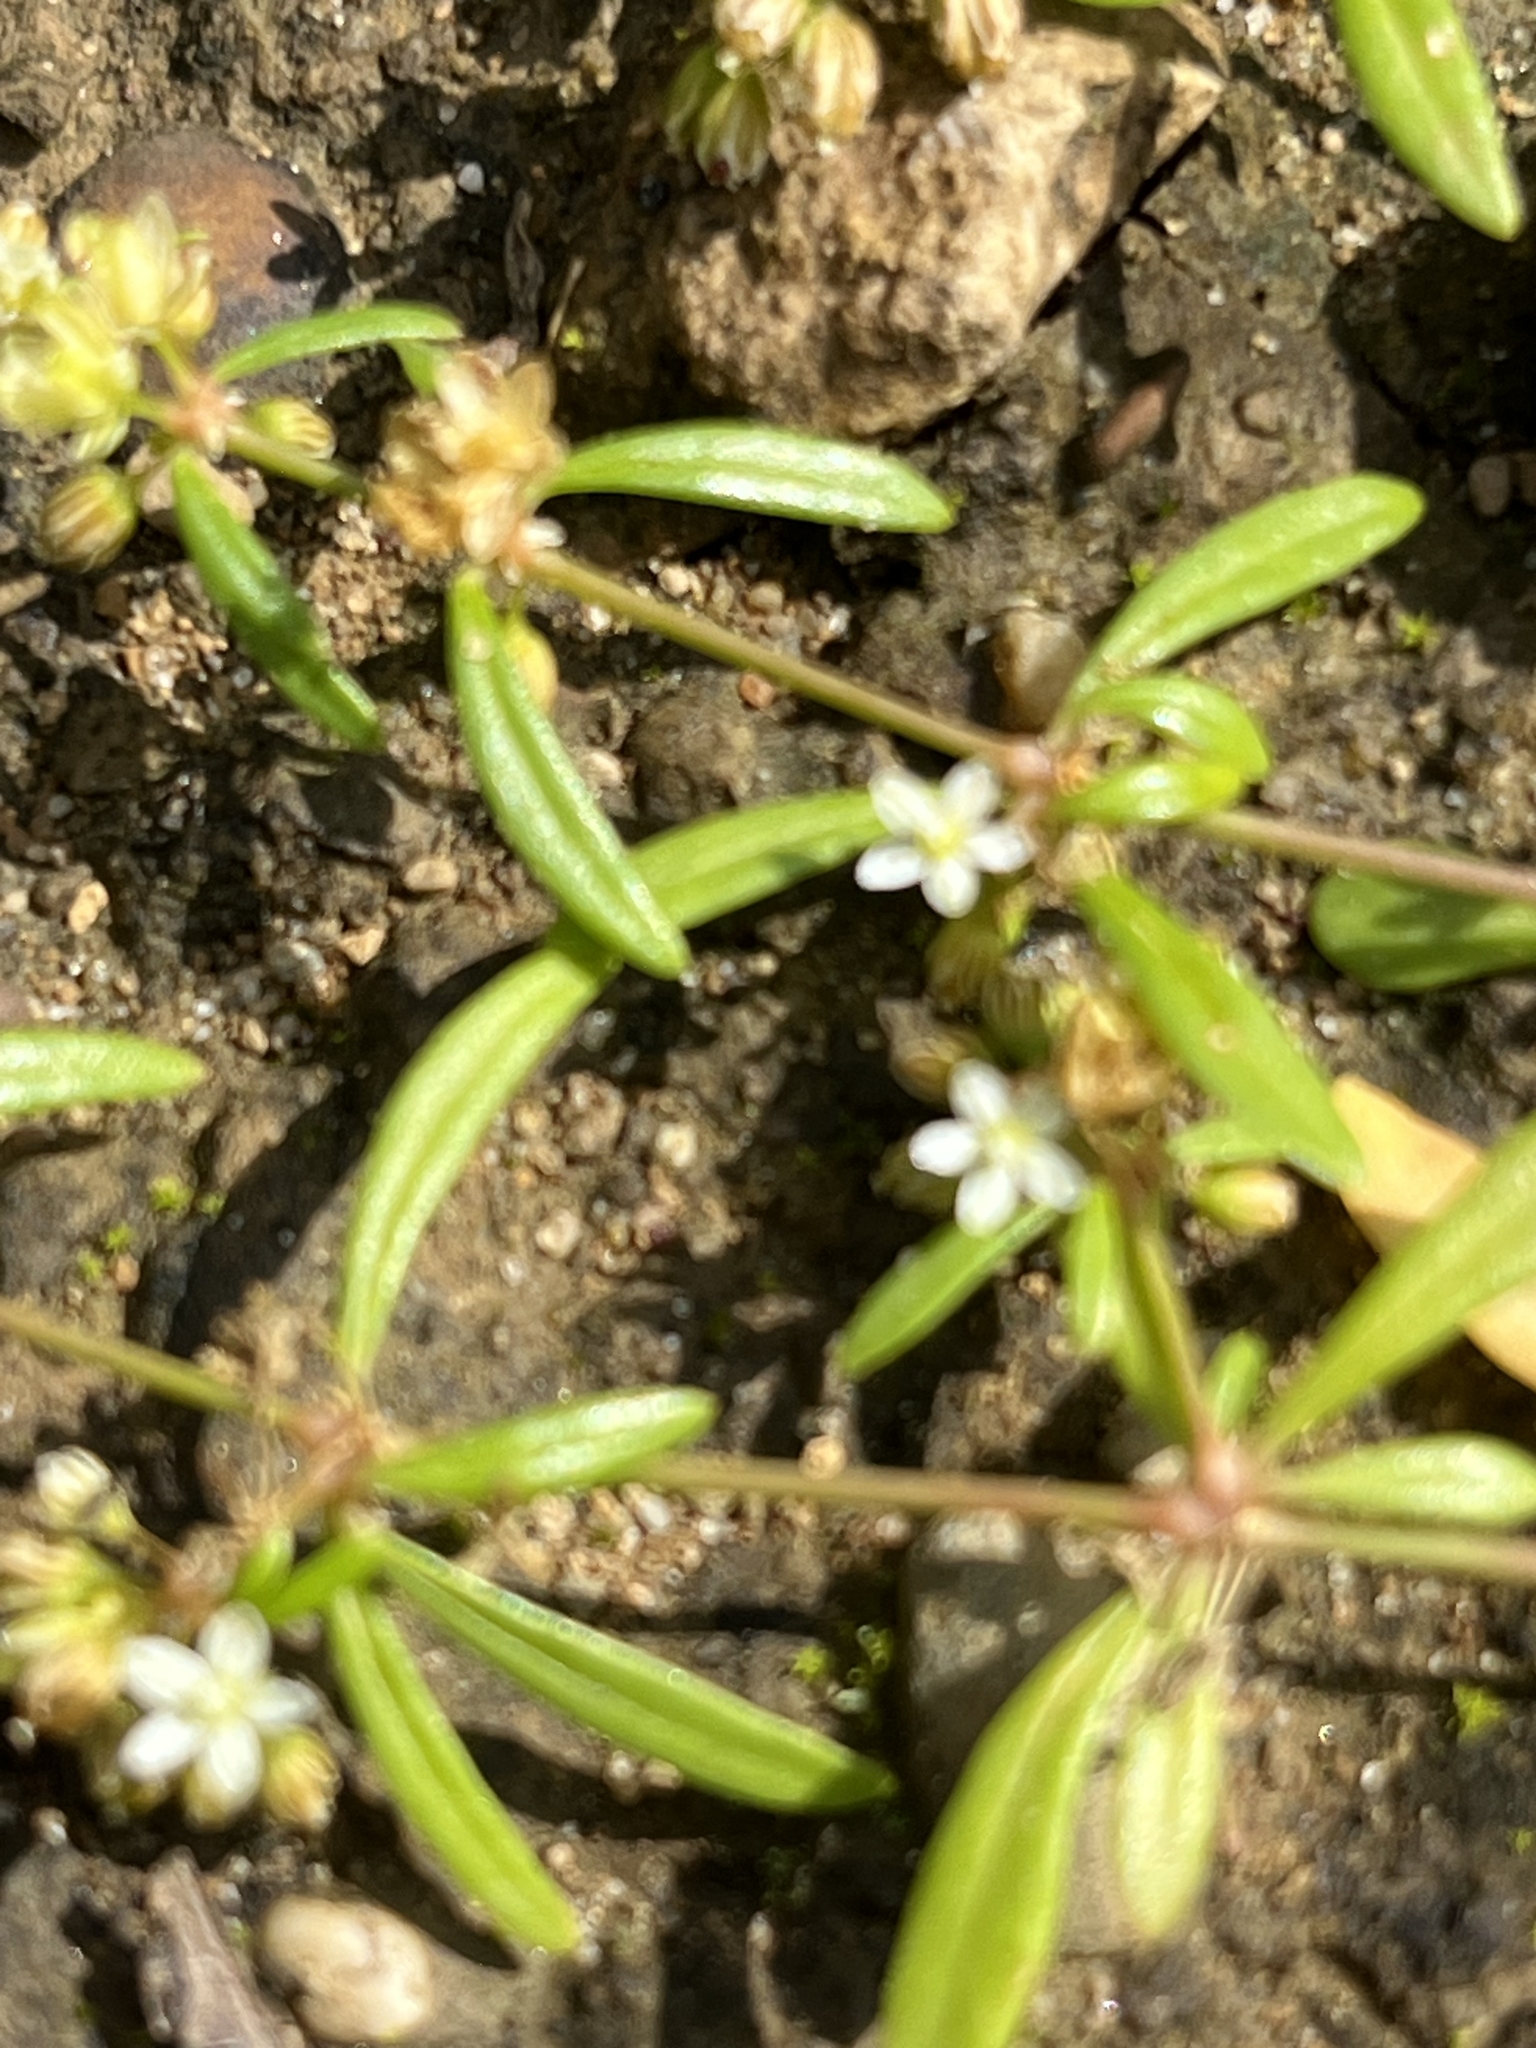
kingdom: Plantae
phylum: Tracheophyta
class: Magnoliopsida
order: Caryophyllales
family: Molluginaceae
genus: Mollugo
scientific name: Mollugo verticillata
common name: Green carpetweed
